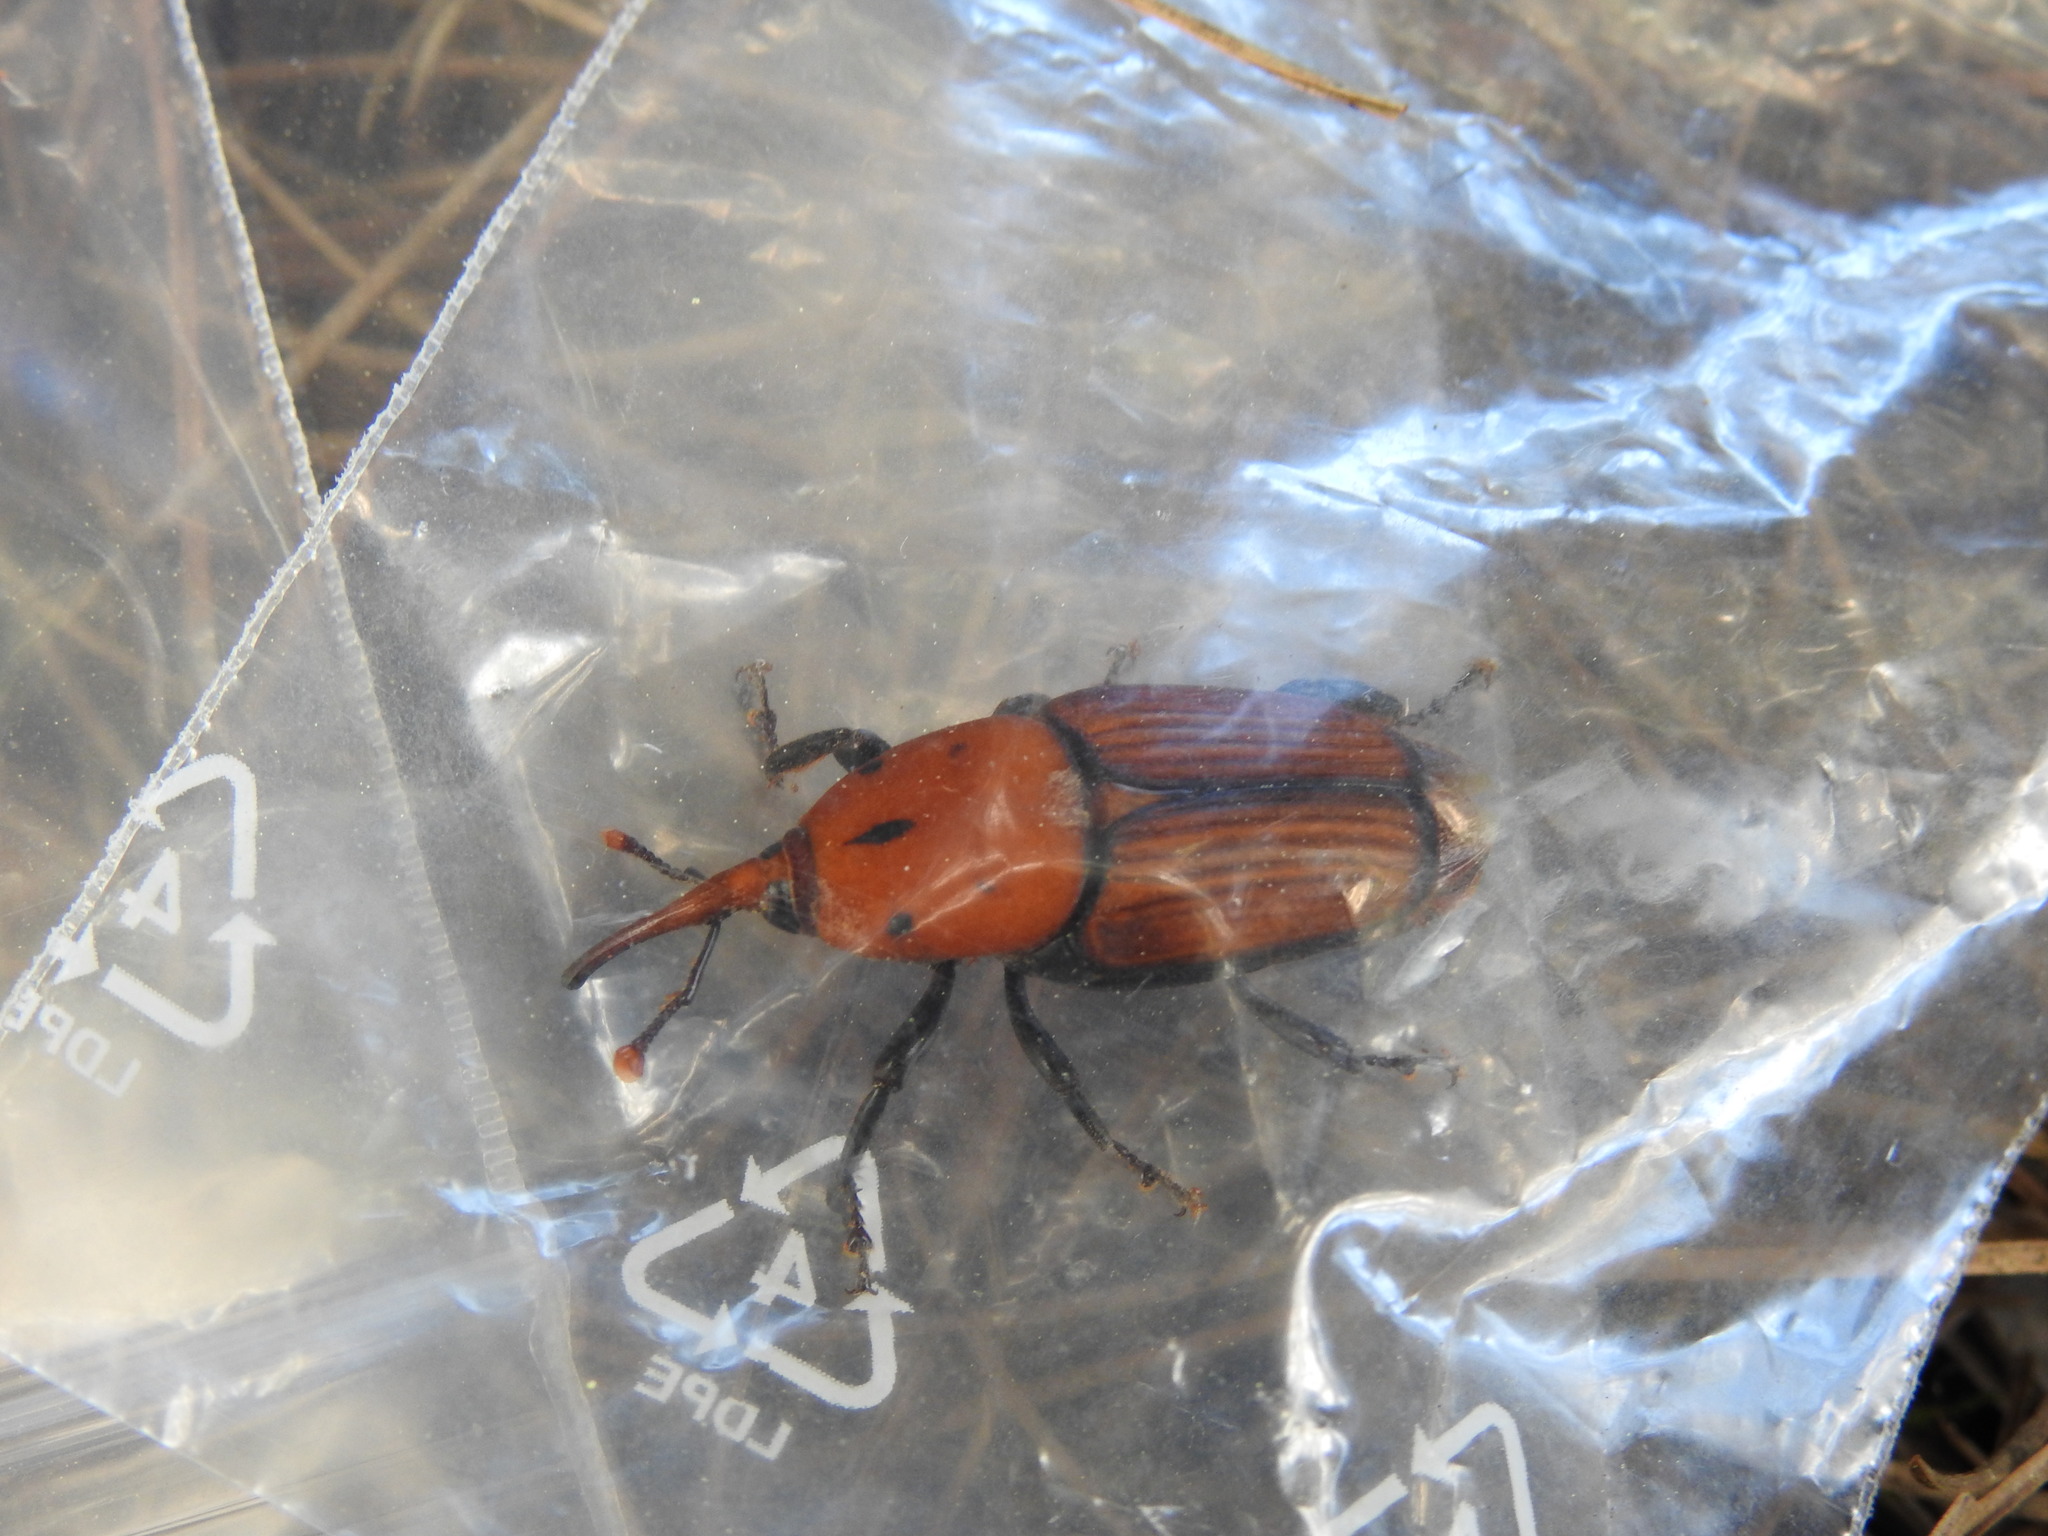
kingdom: Animalia
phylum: Arthropoda
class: Insecta
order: Coleoptera
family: Dryophthoridae
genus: Rhynchophorus
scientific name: Rhynchophorus ferrugineus
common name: Red palm weevil
